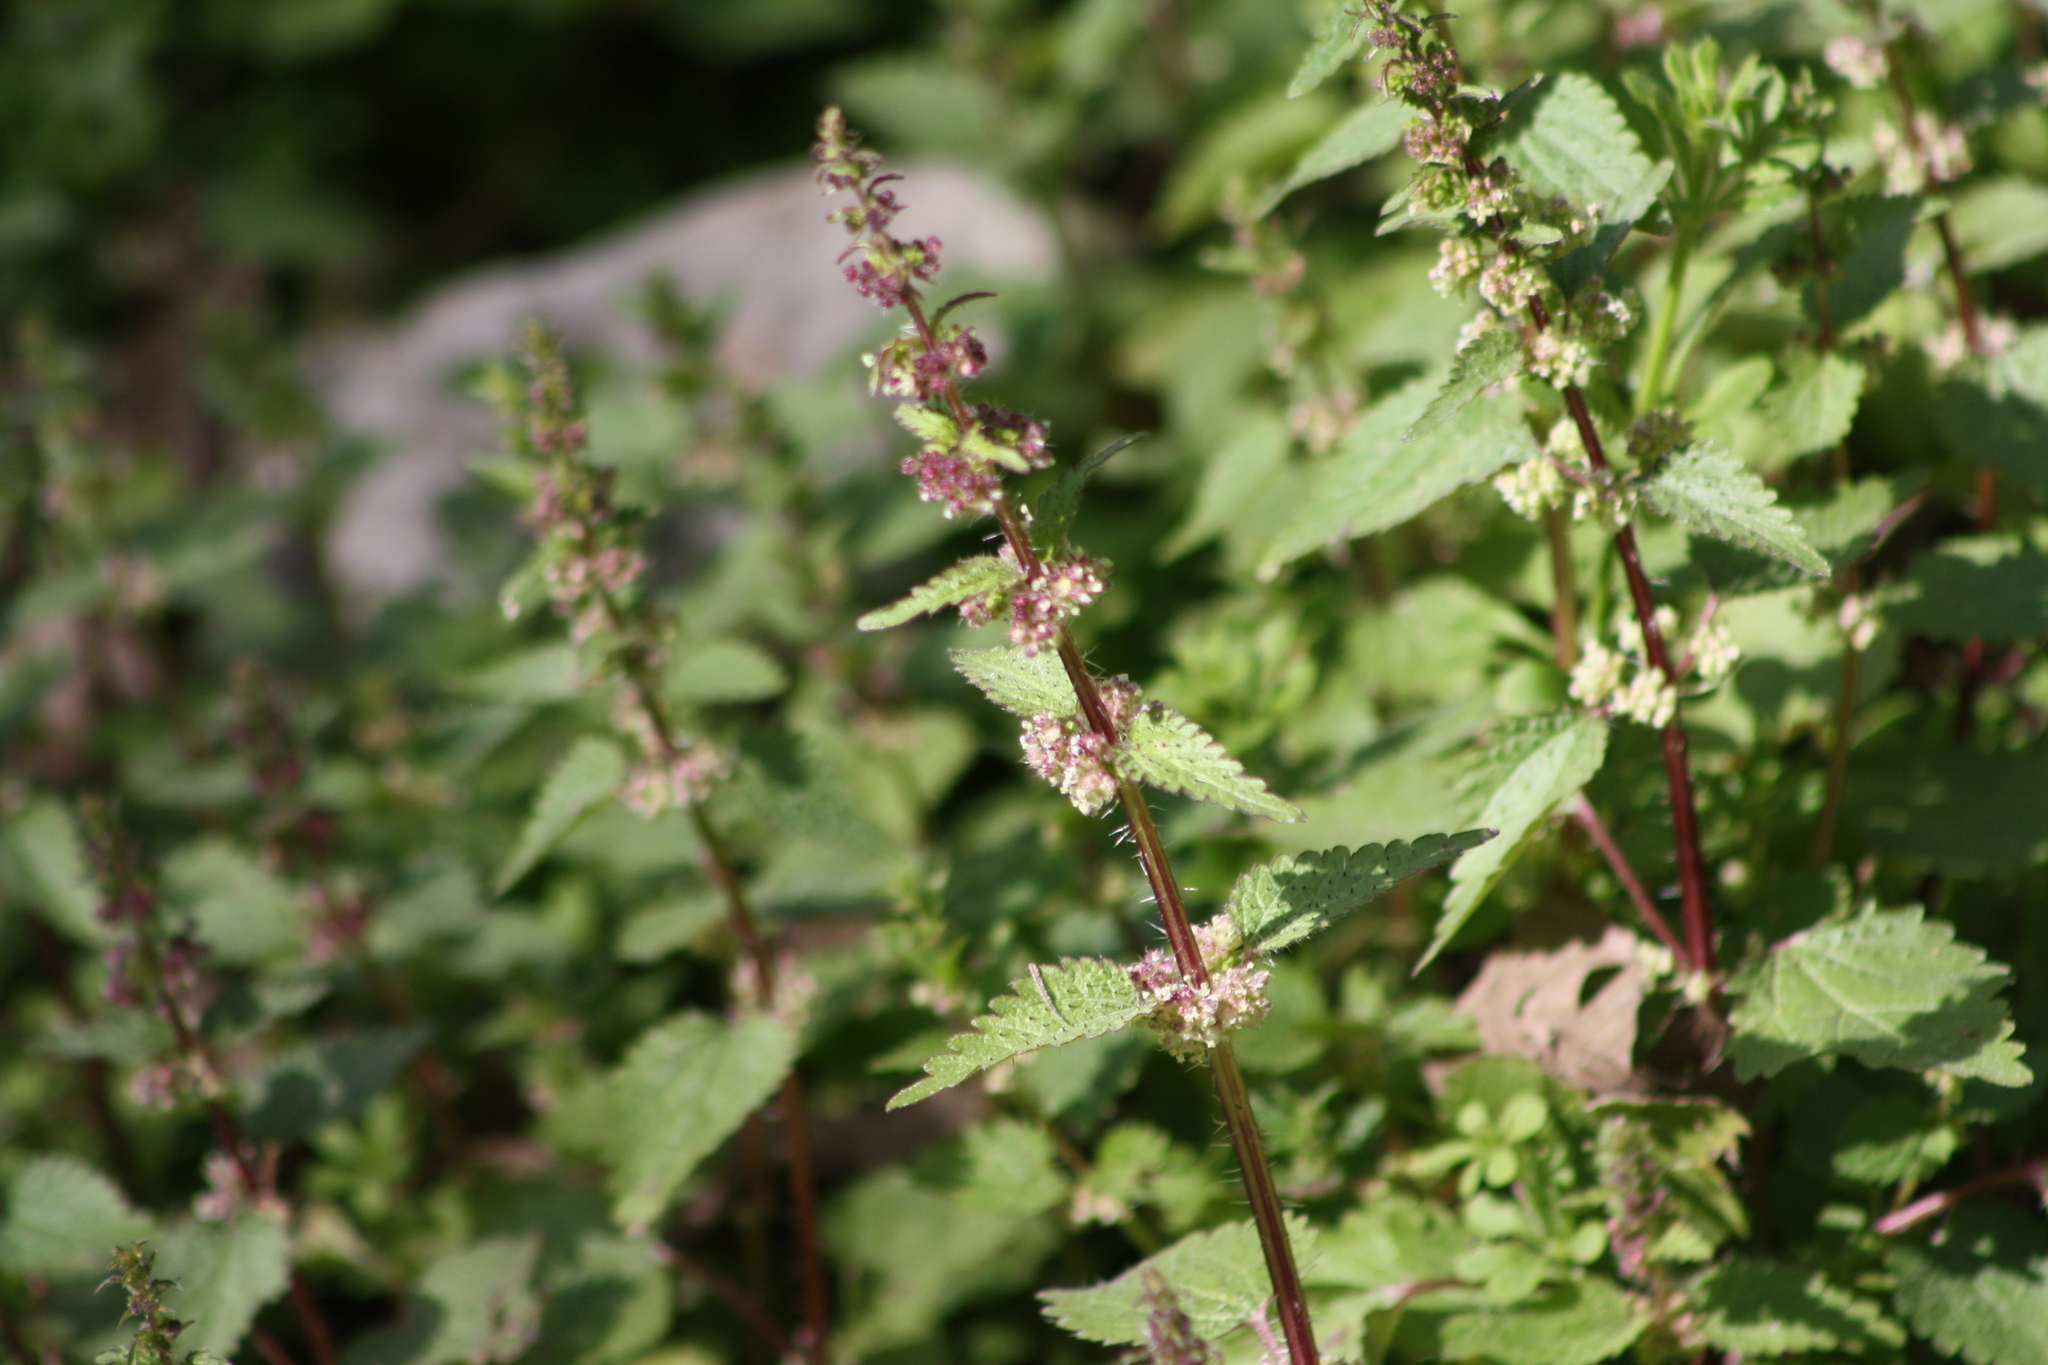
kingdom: Plantae
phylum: Tracheophyta
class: Magnoliopsida
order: Rosales
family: Urticaceae
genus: Urtica
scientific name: Urtica chamaedryoides
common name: Heart-leaf nettle
